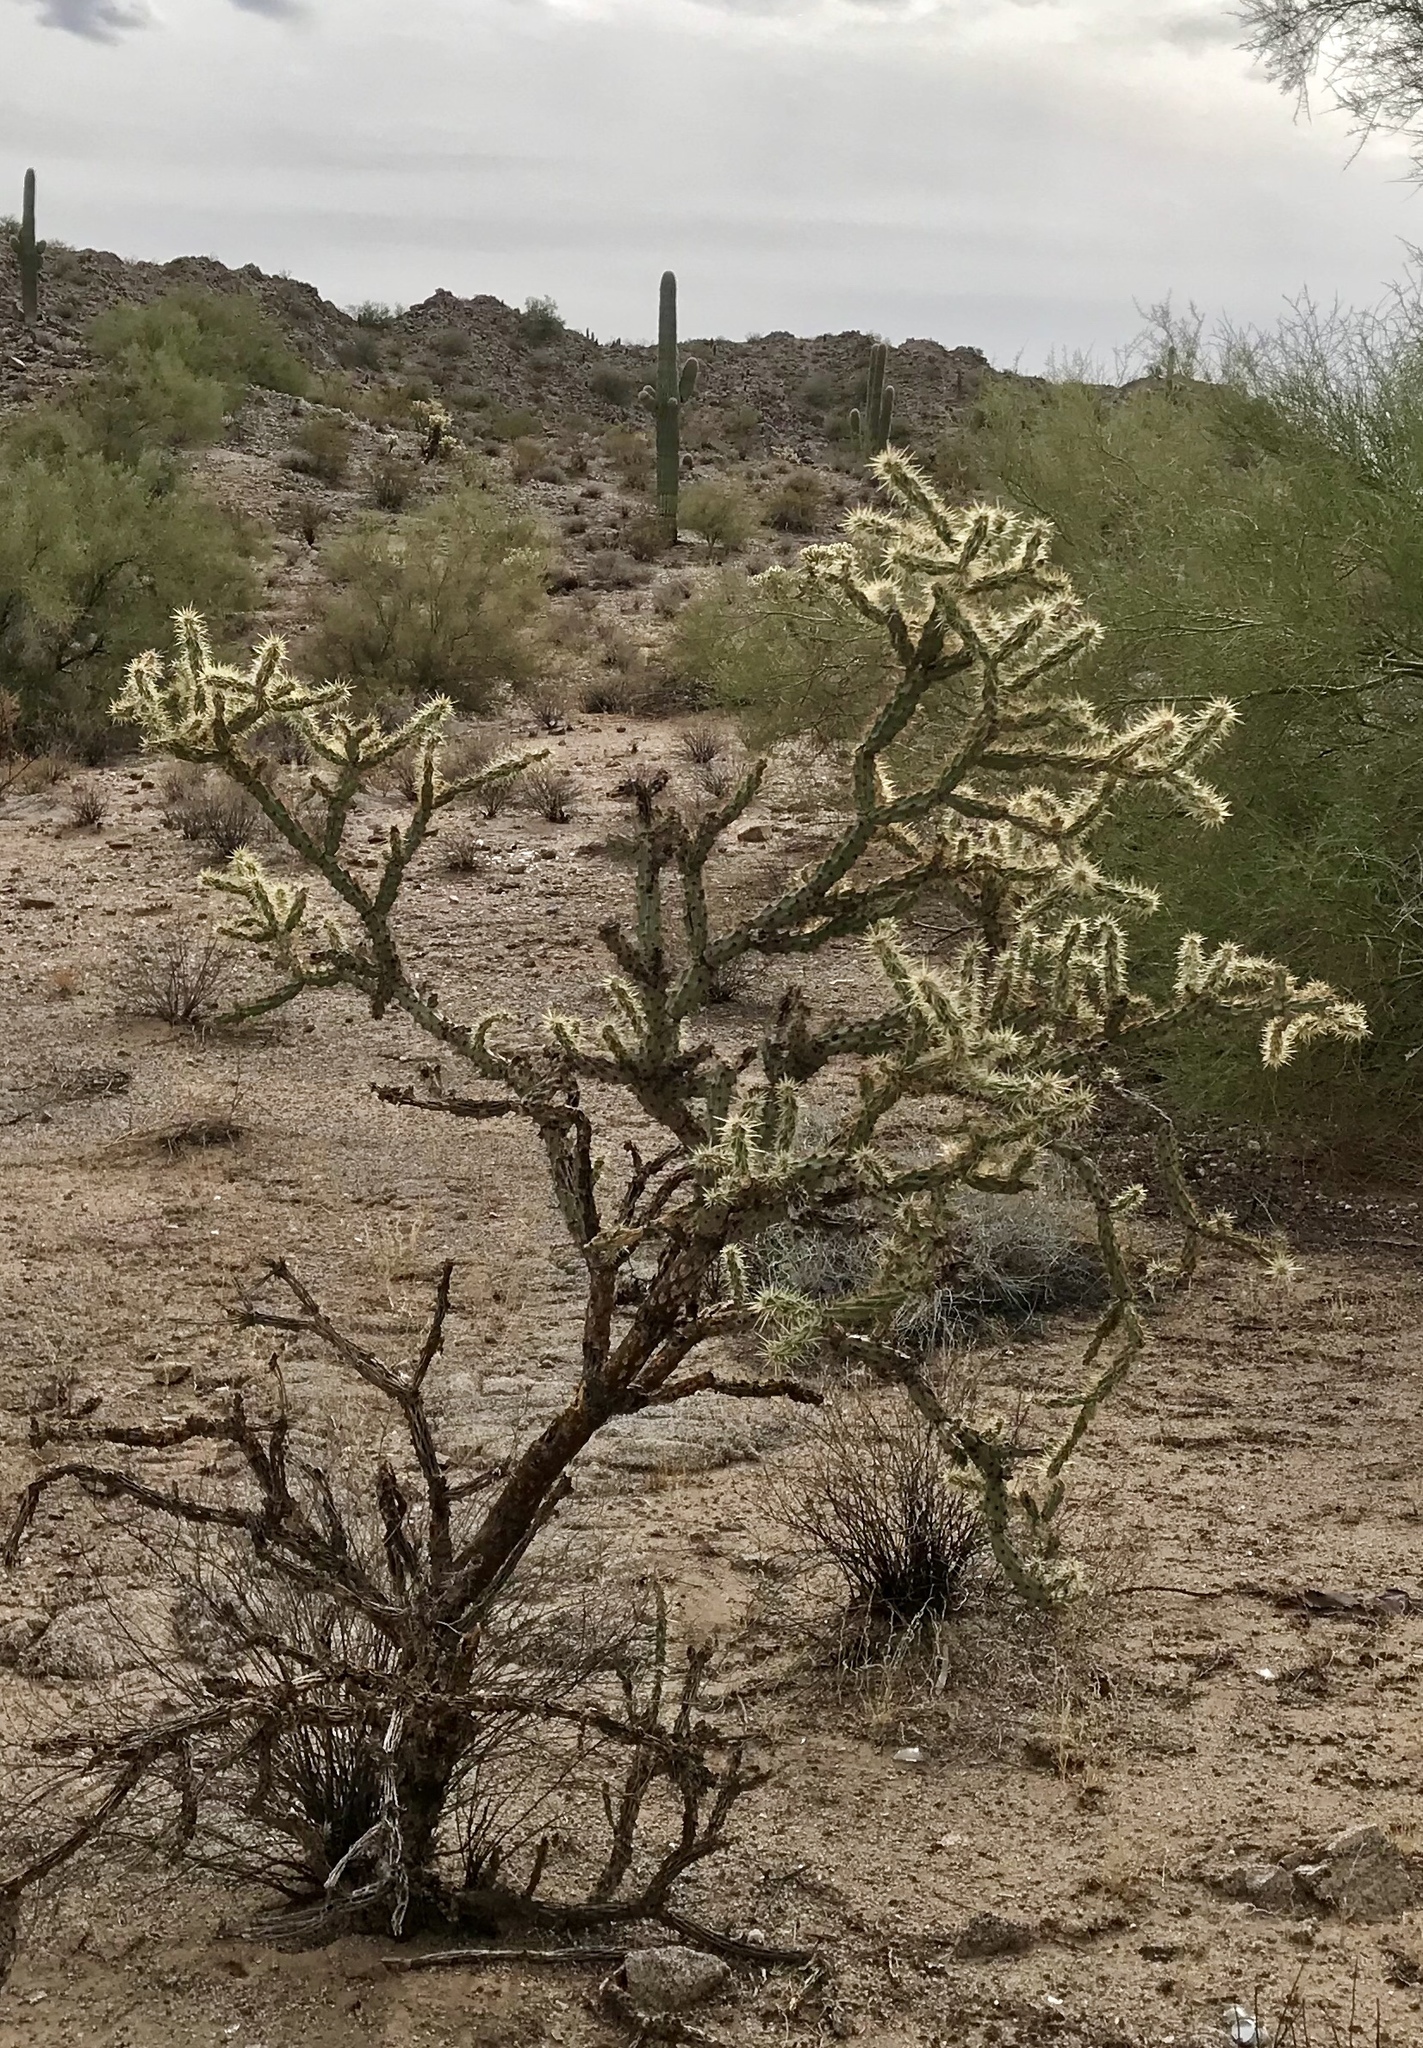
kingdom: Plantae
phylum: Tracheophyta
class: Magnoliopsida
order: Caryophyllales
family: Cactaceae
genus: Cylindropuntia
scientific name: Cylindropuntia acanthocarpa
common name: Buckhorn cholla
